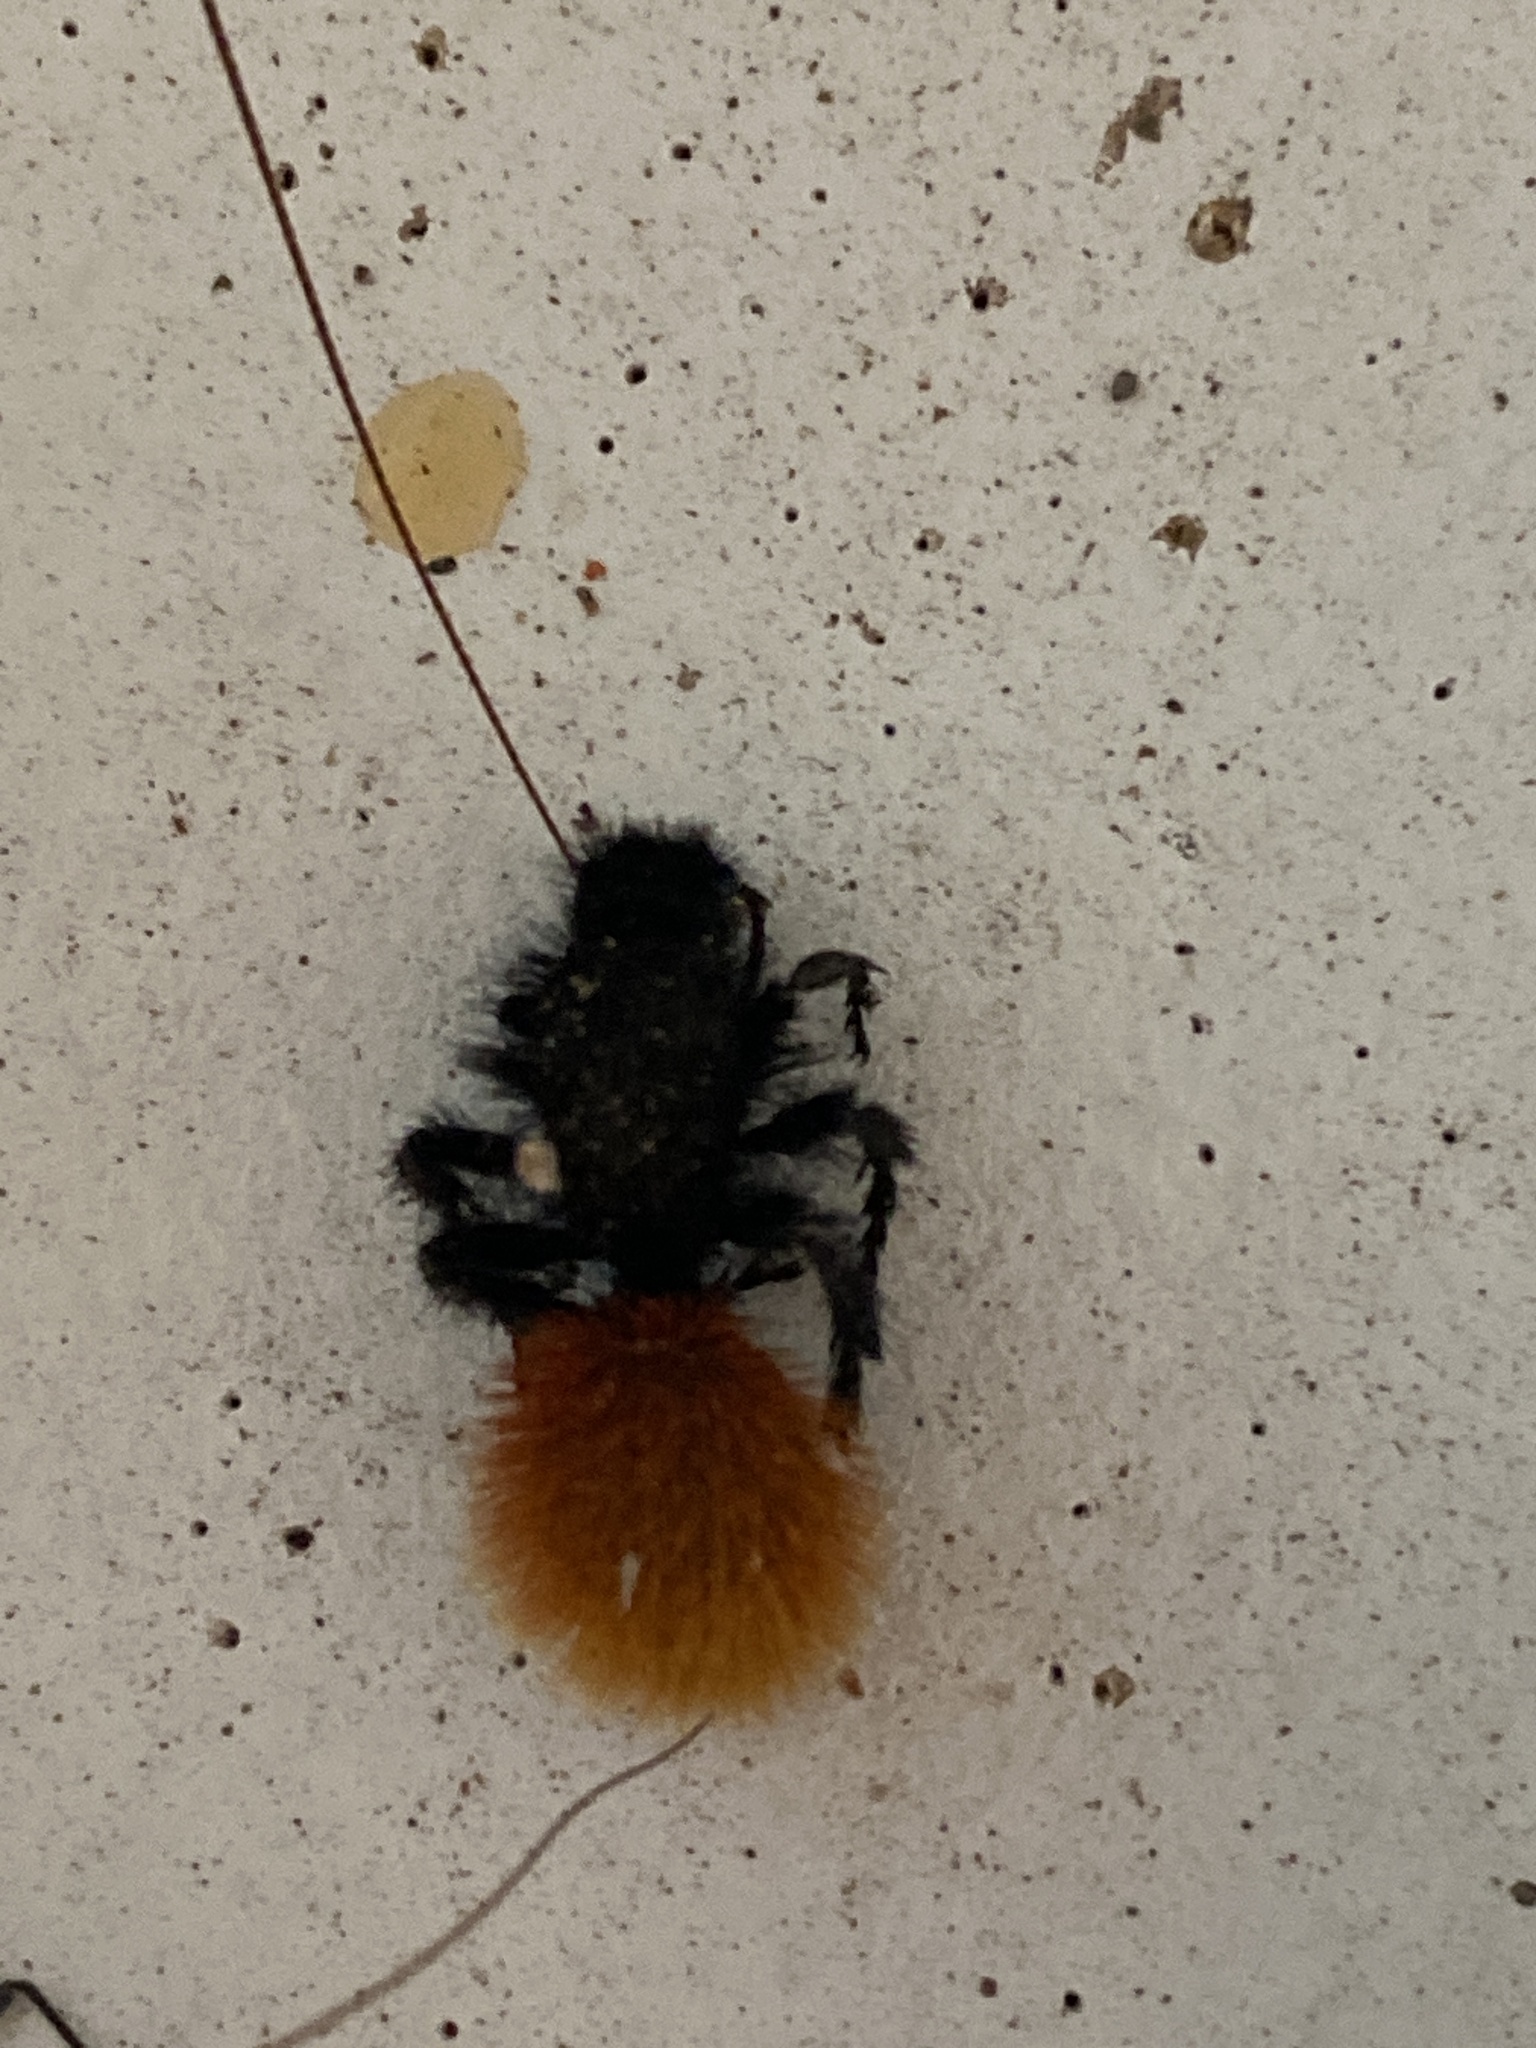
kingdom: Animalia
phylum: Arthropoda
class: Insecta
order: Hymenoptera
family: Mutillidae
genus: Dasymutilla
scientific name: Dasymutilla magnifica
